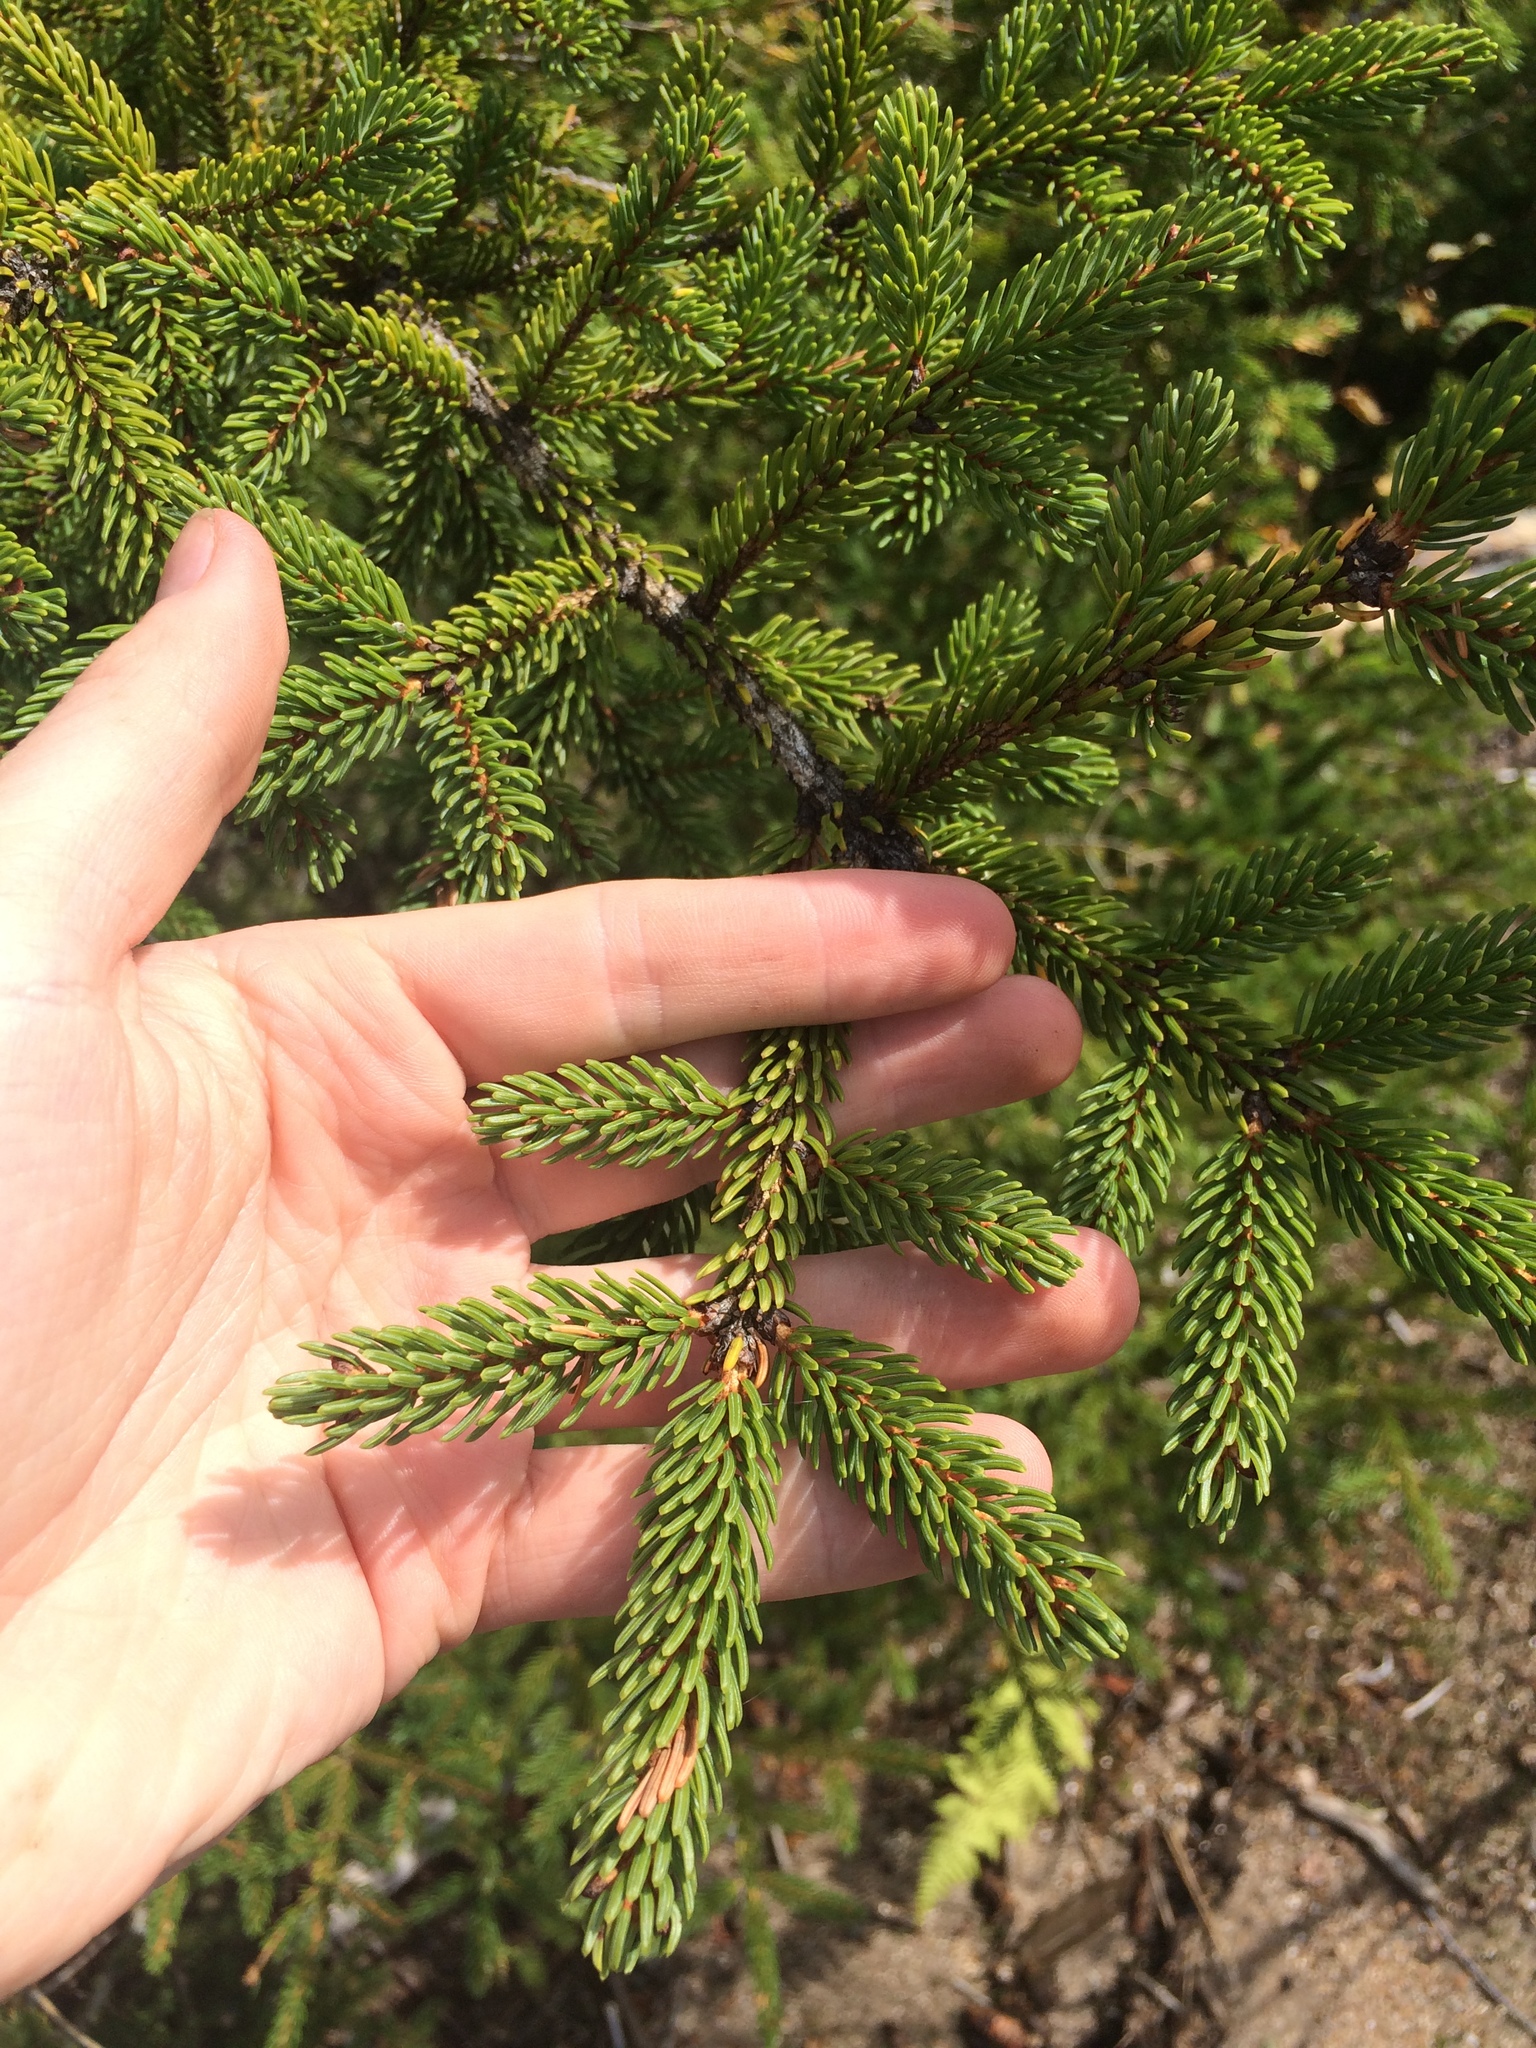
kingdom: Plantae
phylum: Tracheophyta
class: Pinopsida
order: Pinales
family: Pinaceae
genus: Picea
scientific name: Picea rubens
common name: Red spruce
